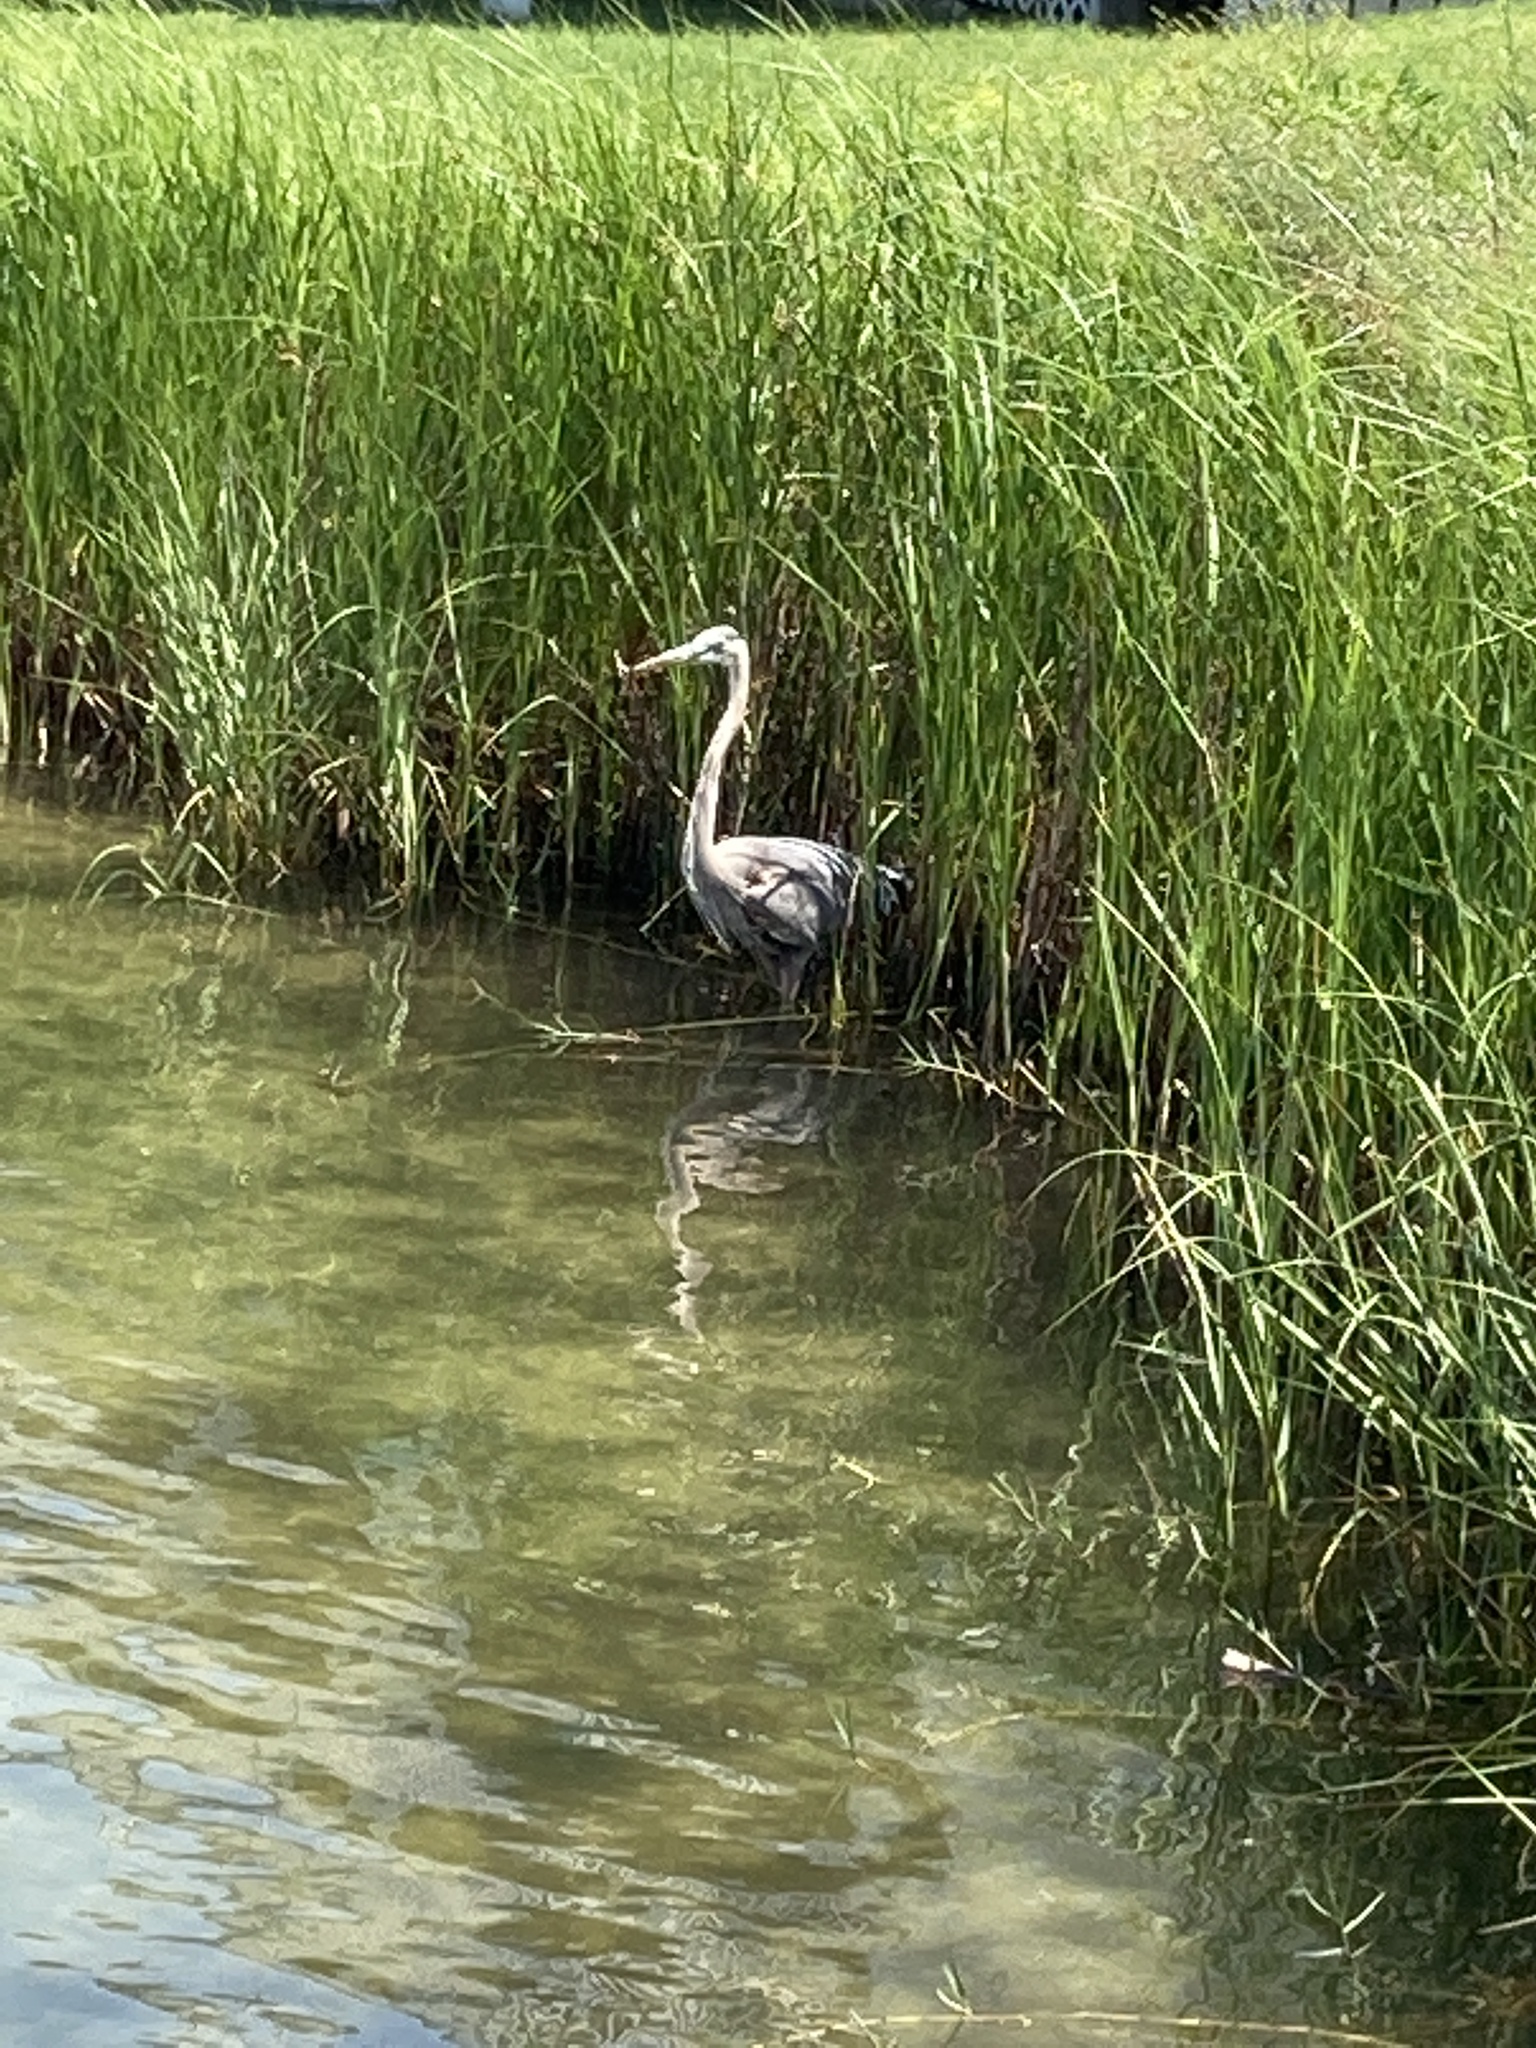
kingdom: Animalia
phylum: Chordata
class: Aves
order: Pelecaniformes
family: Ardeidae
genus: Ardea
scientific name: Ardea herodias
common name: Great blue heron
